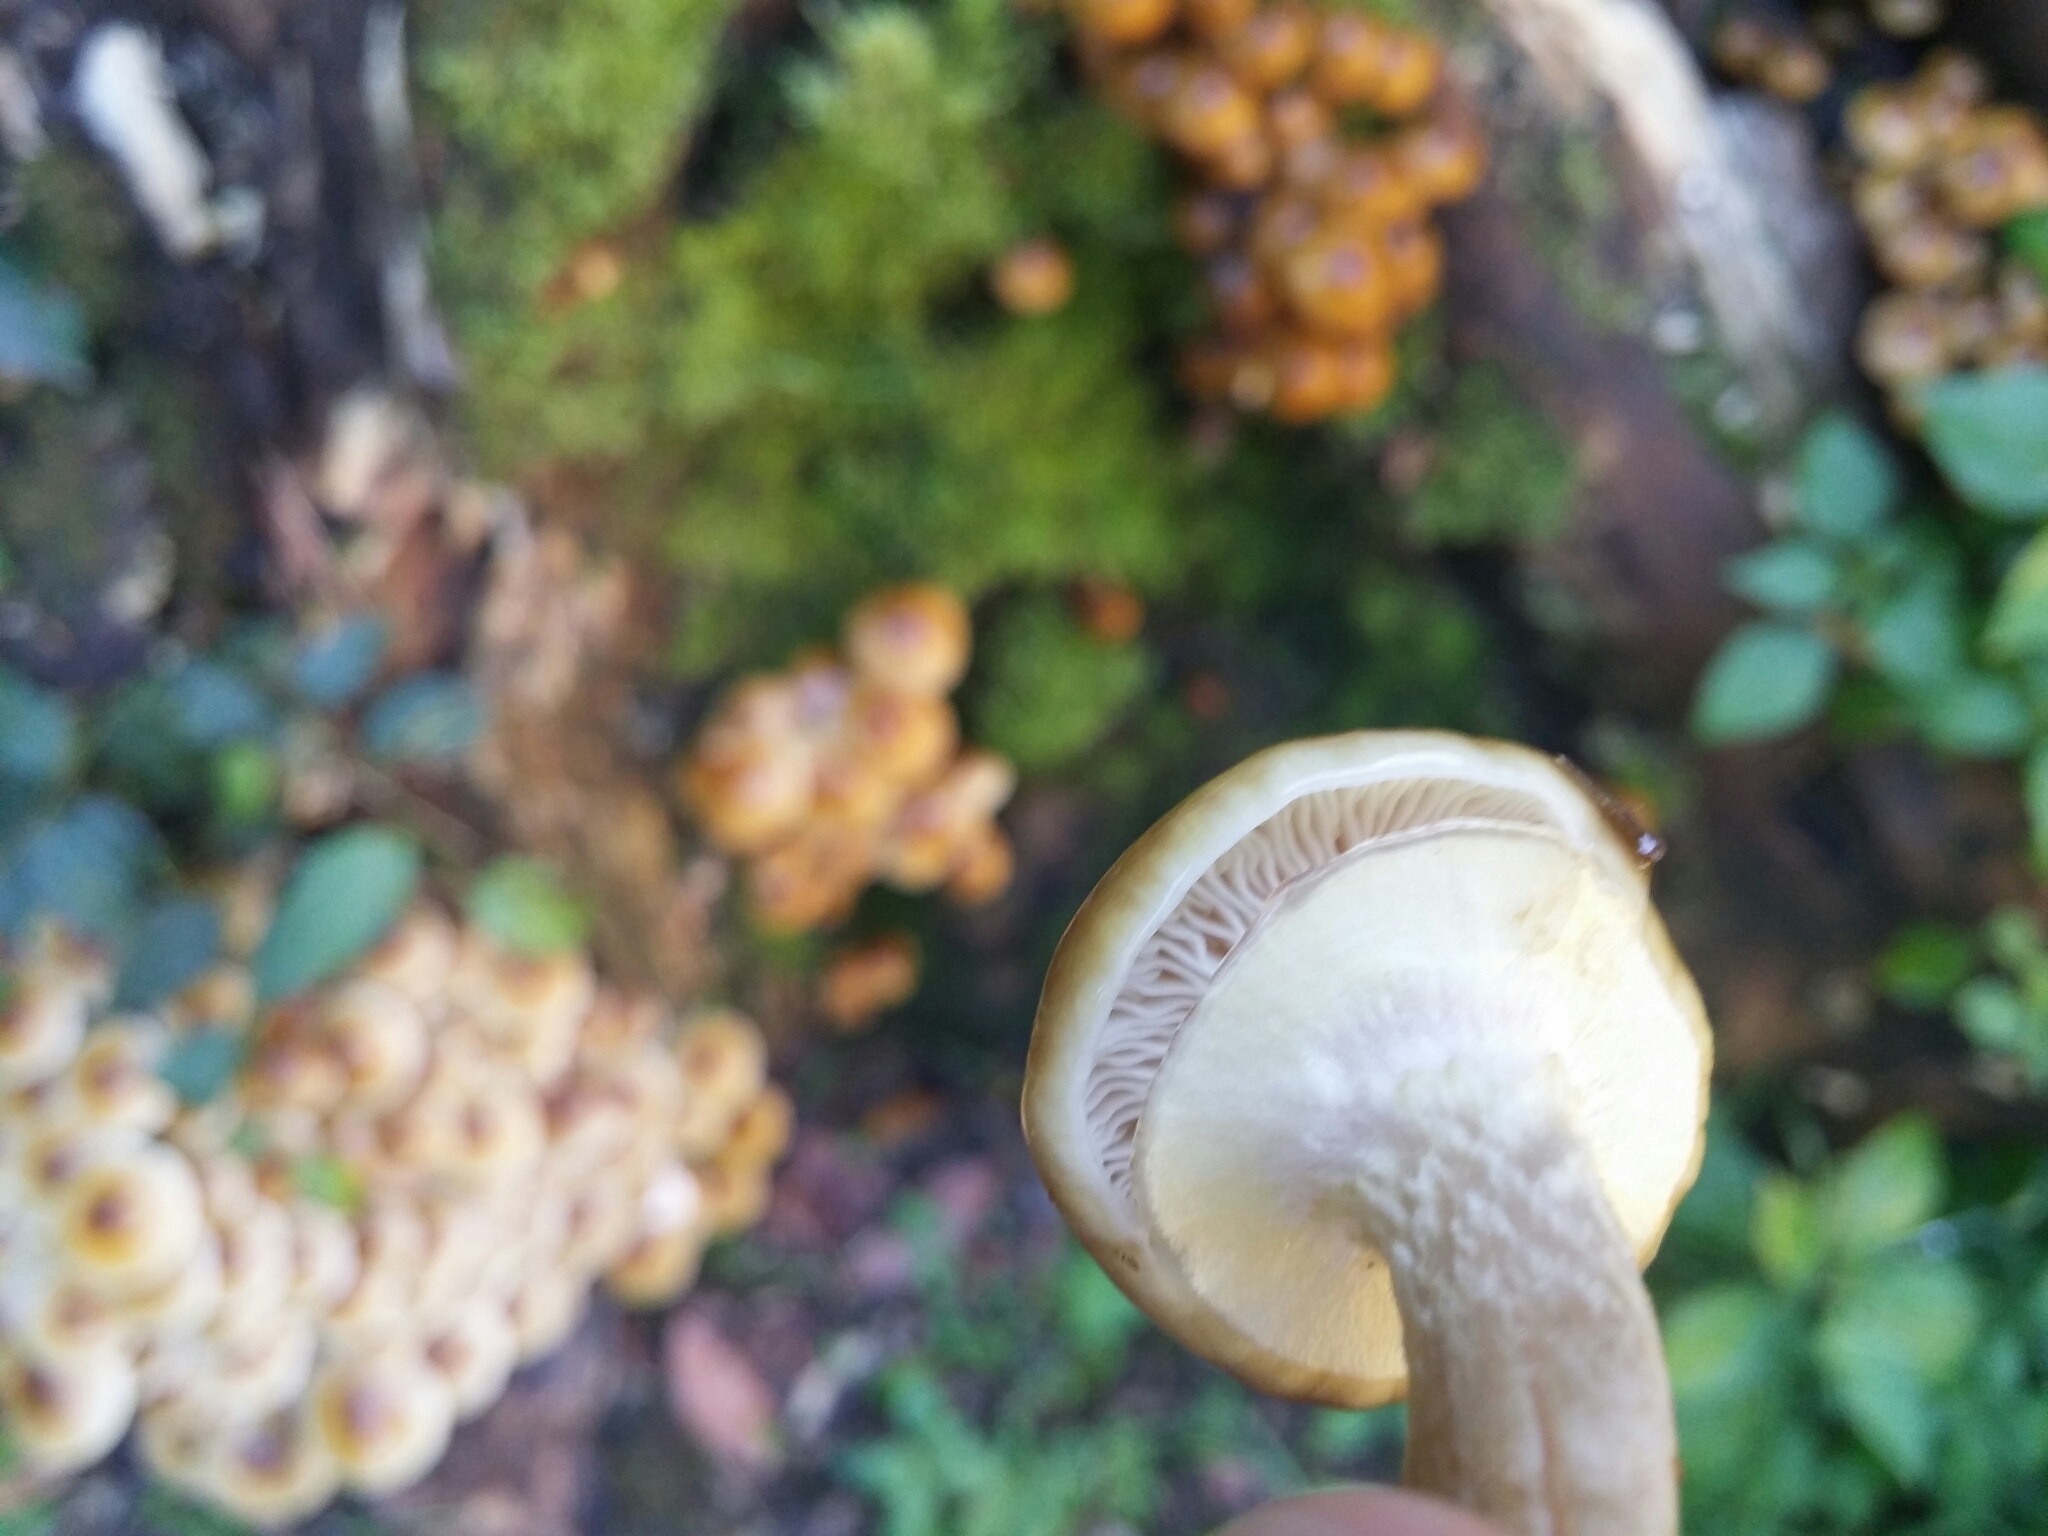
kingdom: Fungi
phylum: Basidiomycota
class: Agaricomycetes
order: Agaricales
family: Physalacriaceae
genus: Armillaria
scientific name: Armillaria mellea
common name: Honey fungus
